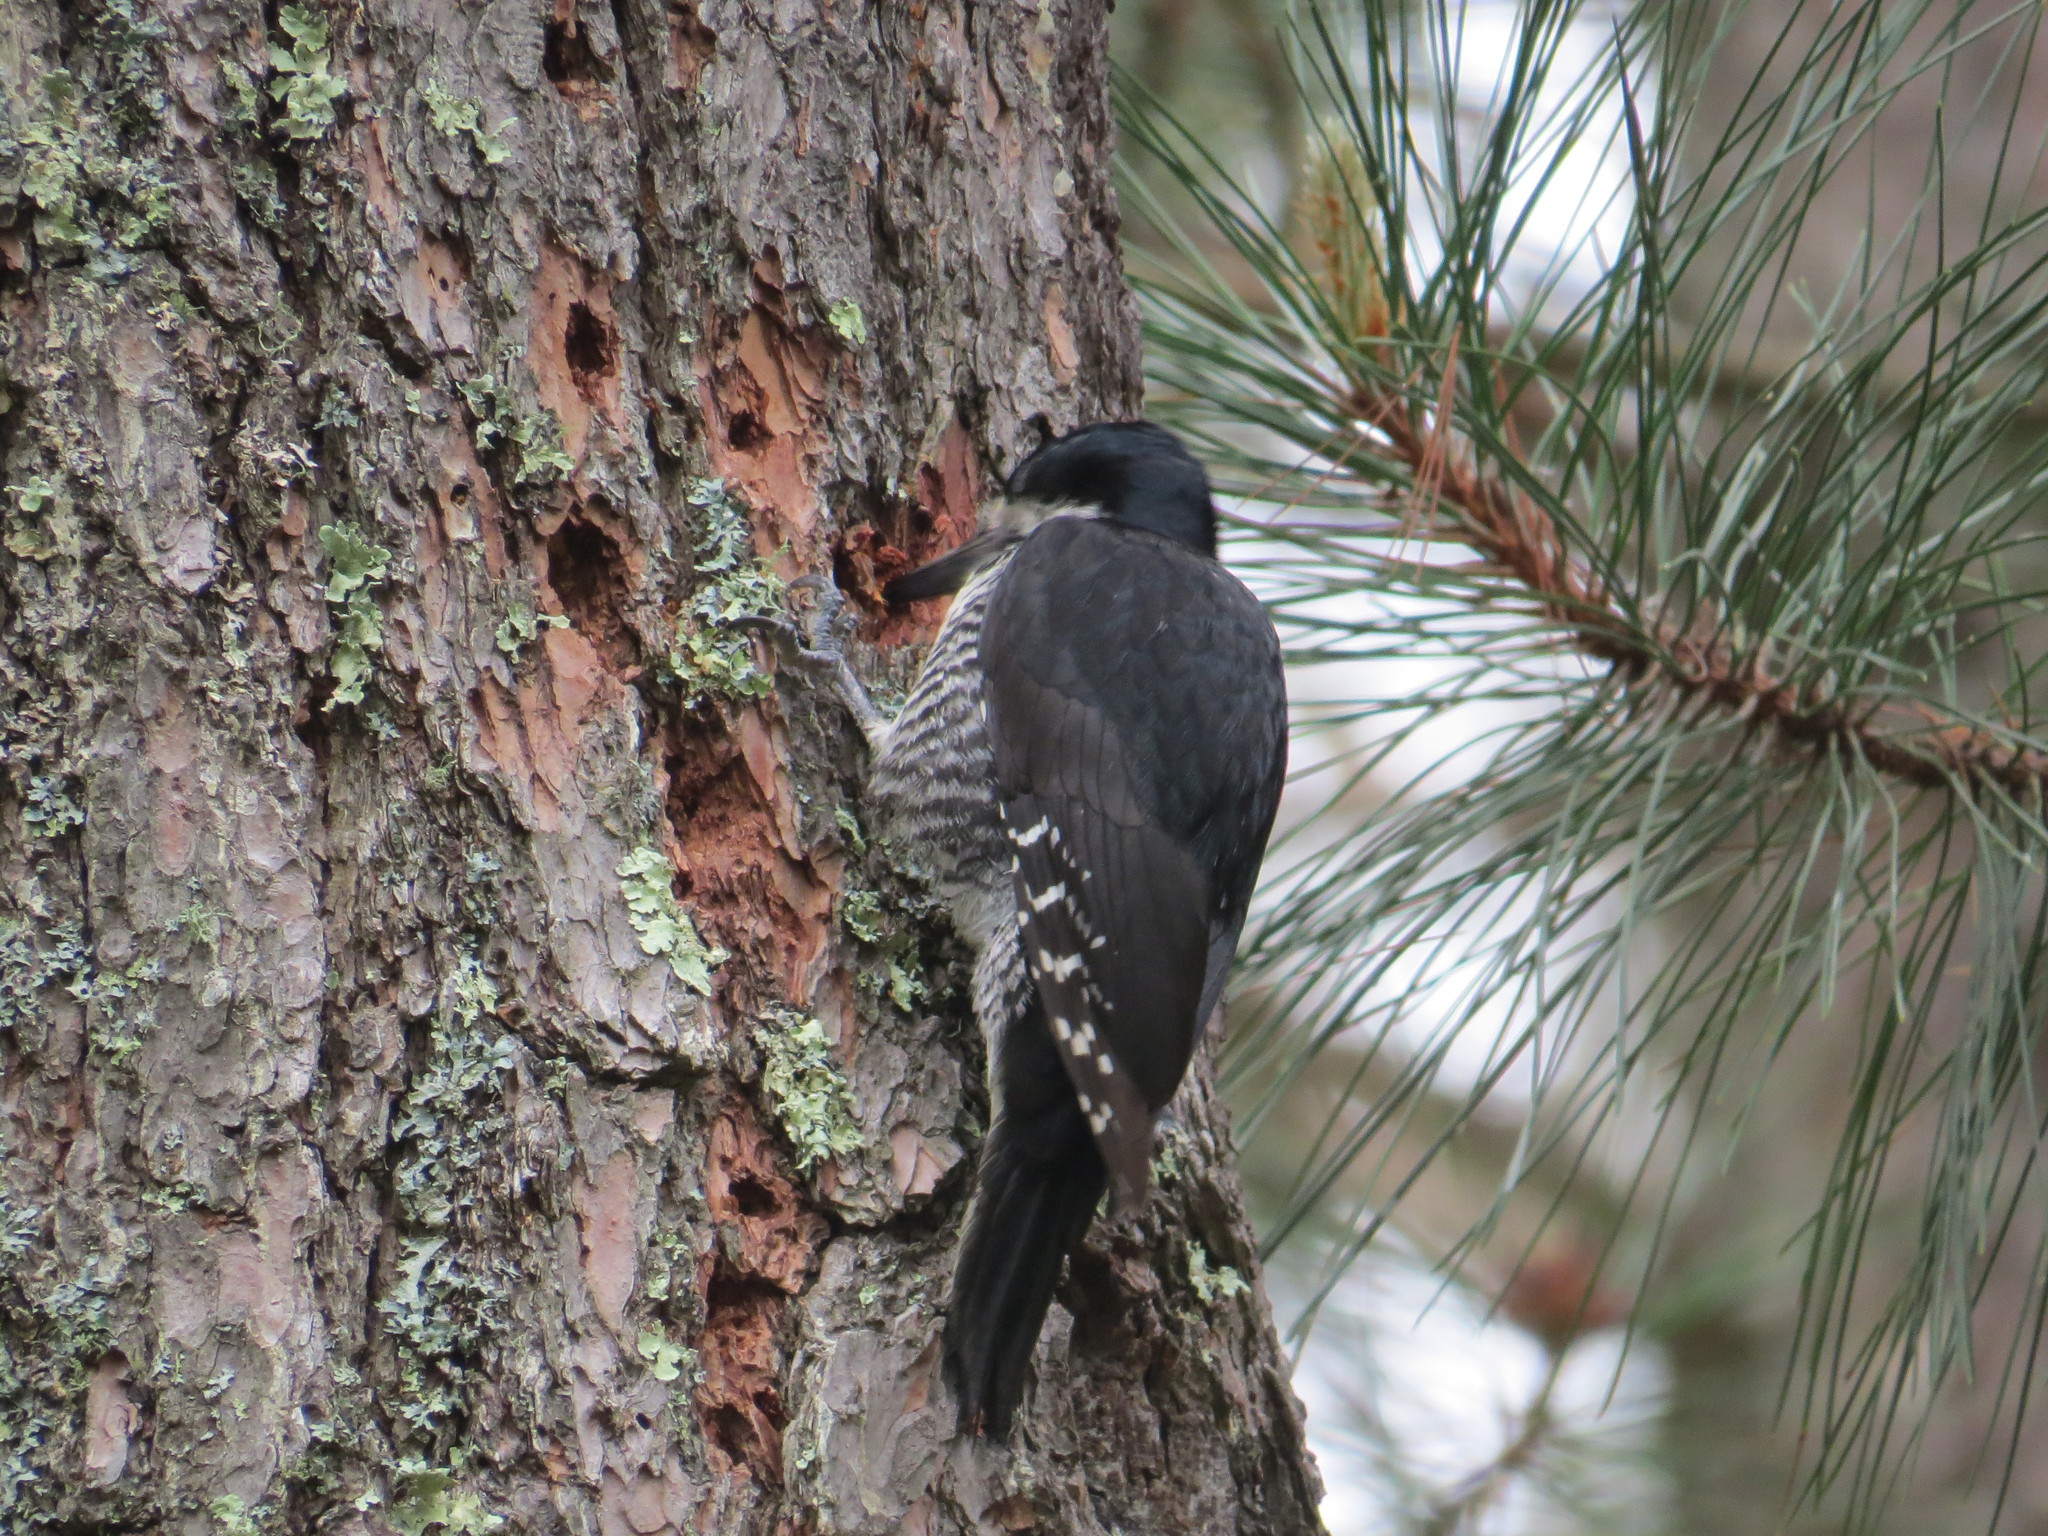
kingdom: Animalia
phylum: Chordata
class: Aves
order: Piciformes
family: Picidae
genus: Picoides
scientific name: Picoides arcticus
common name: Black-backed woodpecker
